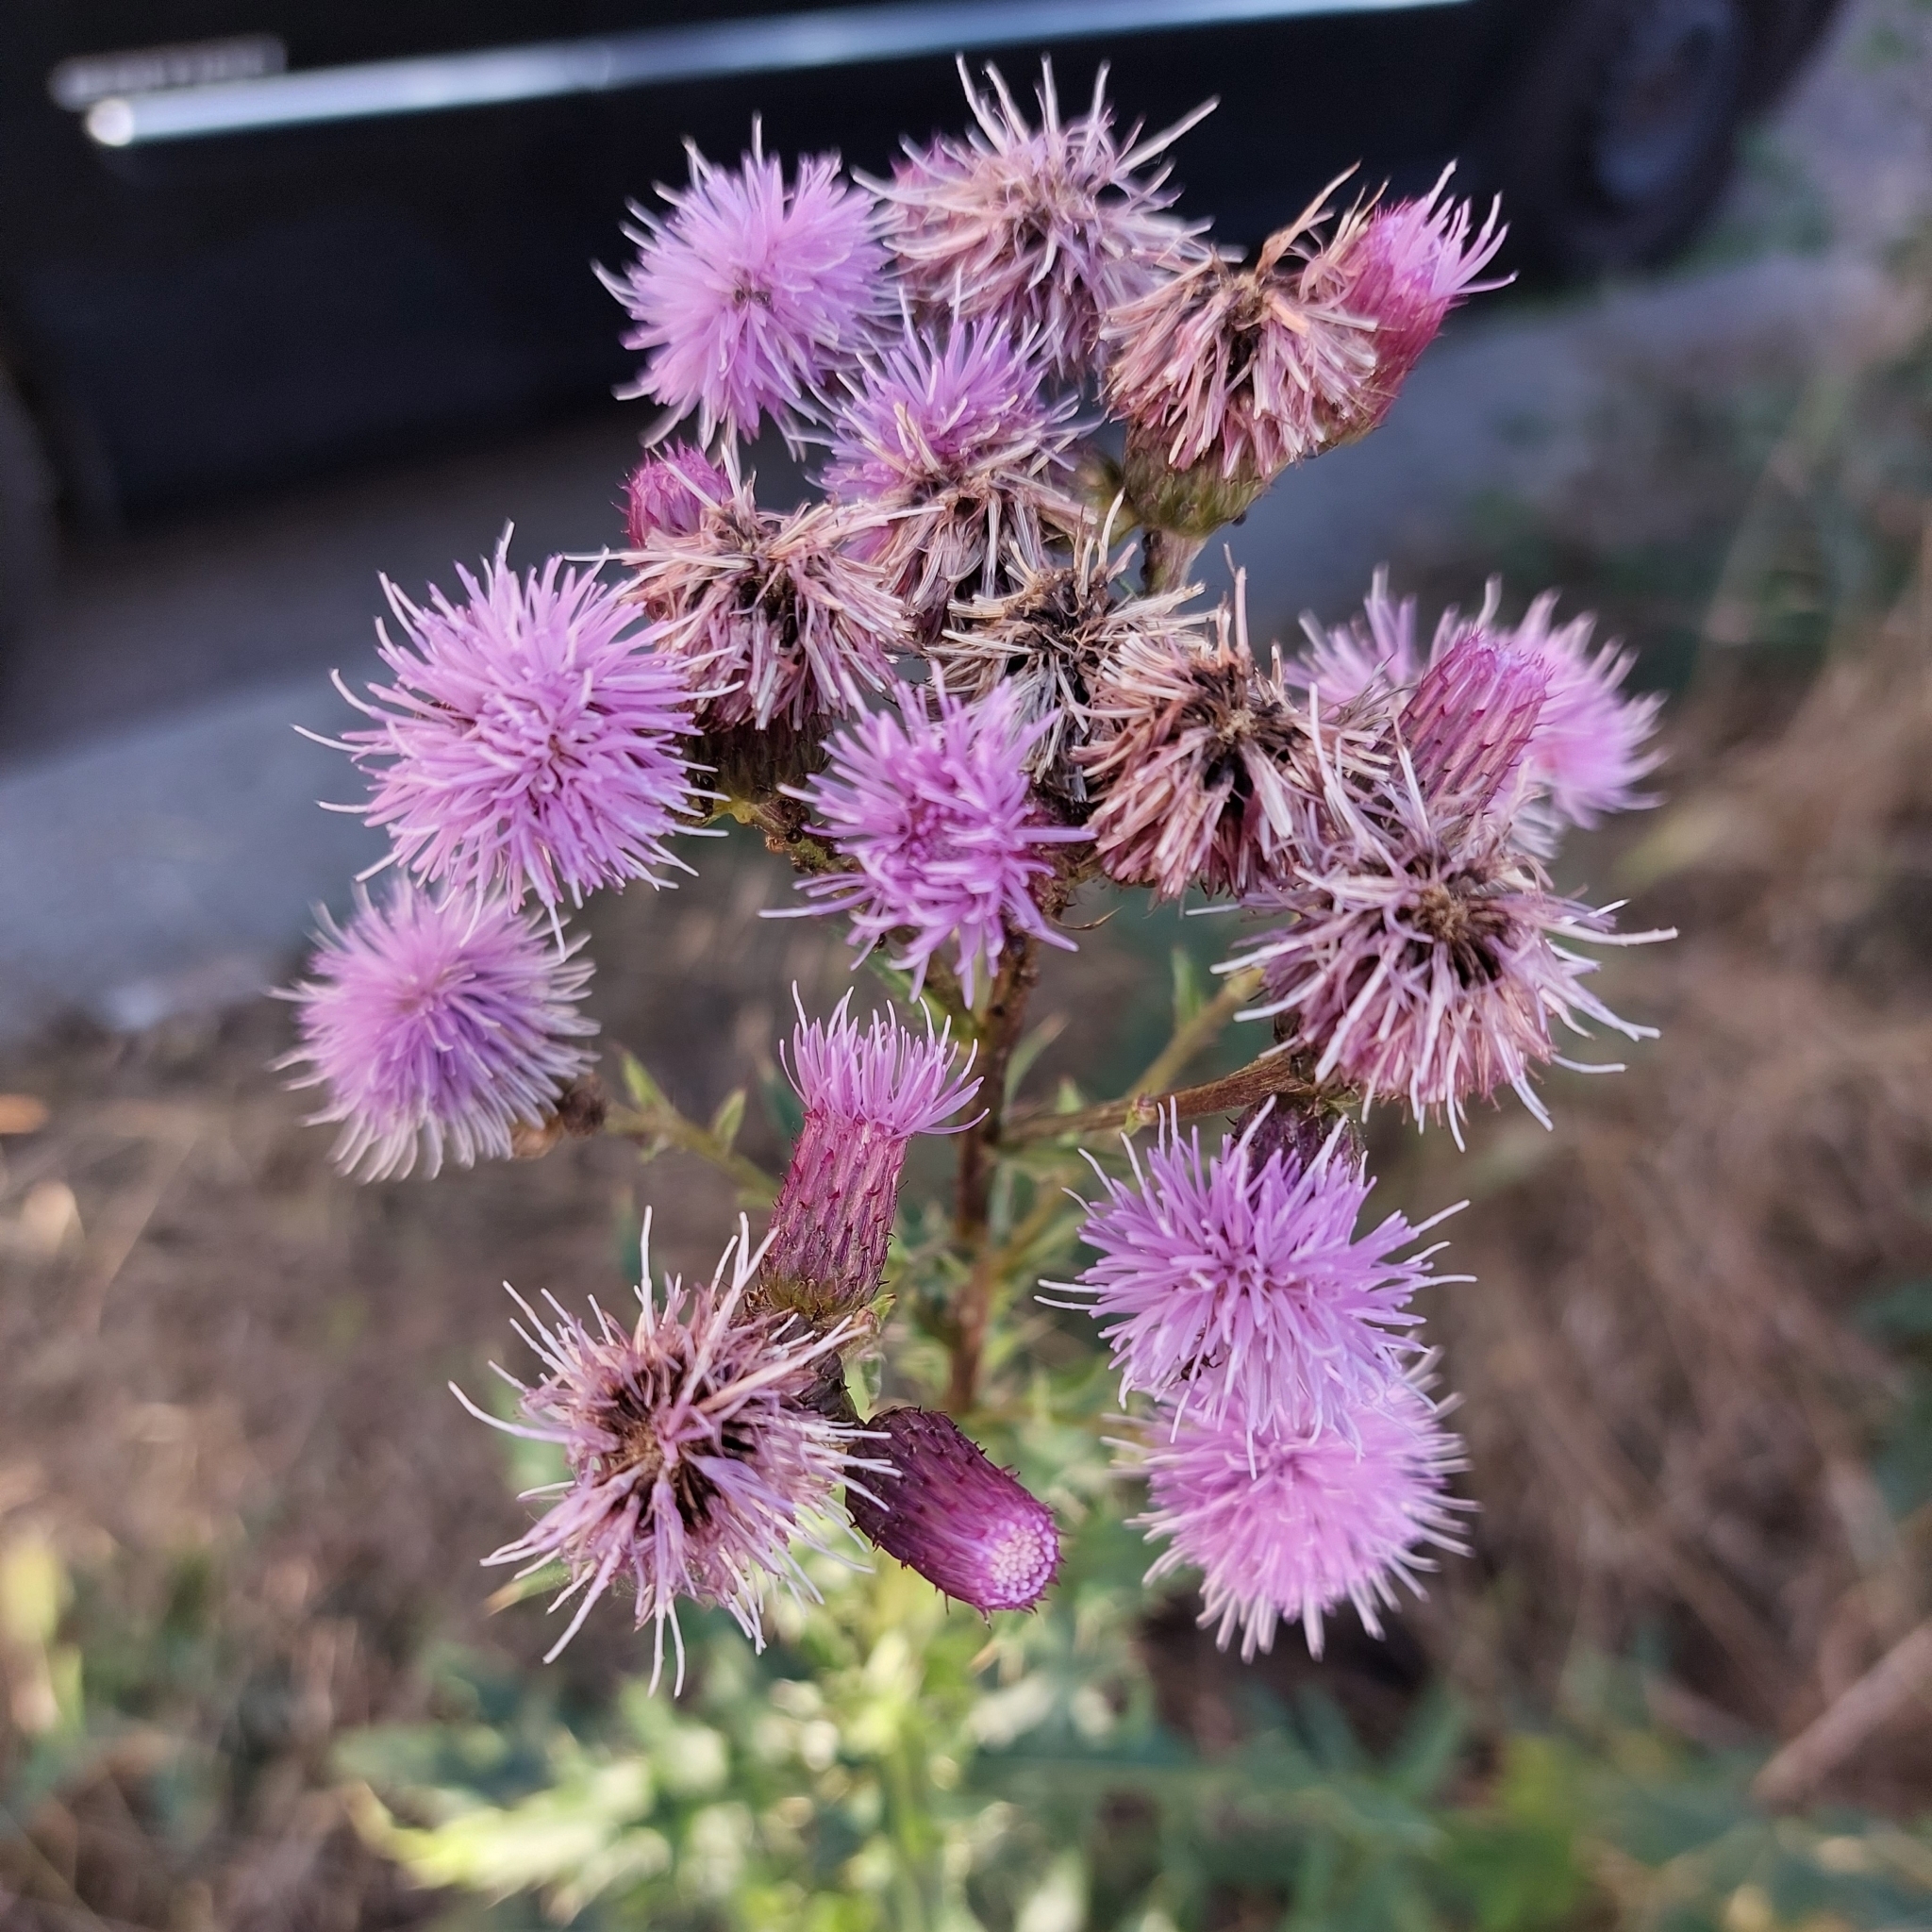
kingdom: Plantae
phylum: Tracheophyta
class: Magnoliopsida
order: Asterales
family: Asteraceae
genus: Cirsium
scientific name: Cirsium arvense
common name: Creeping thistle
